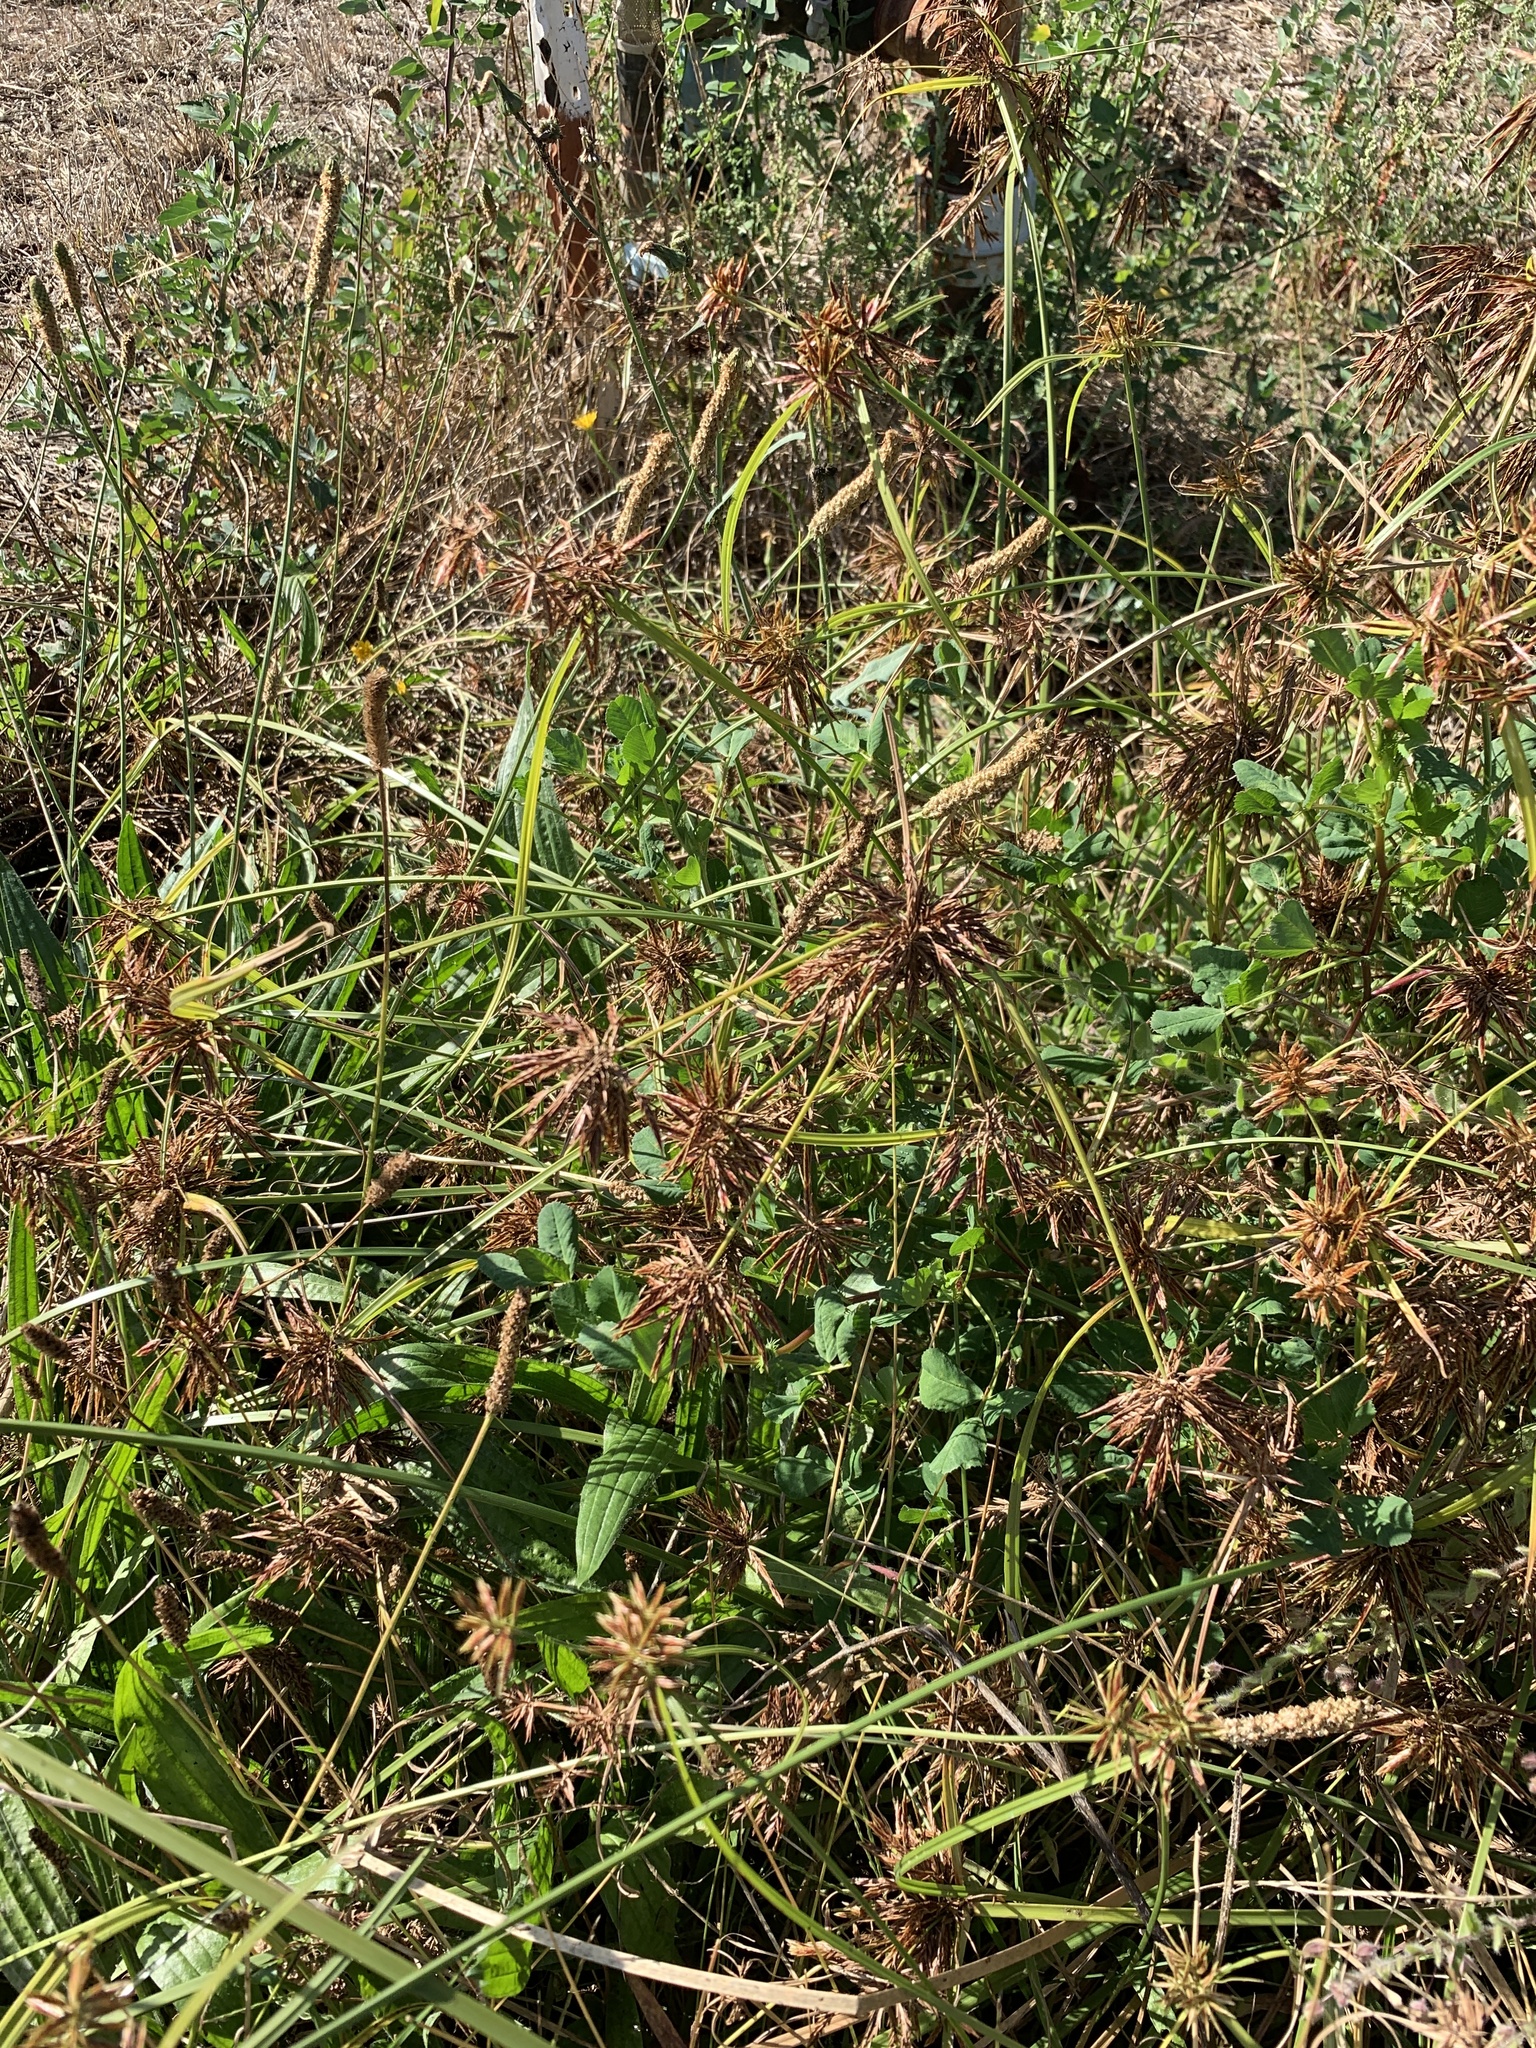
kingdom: Plantae
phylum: Tracheophyta
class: Liliopsida
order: Poales
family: Cyperaceae
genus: Cyperus
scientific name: Cyperus congestus
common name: Dense flat sedge
